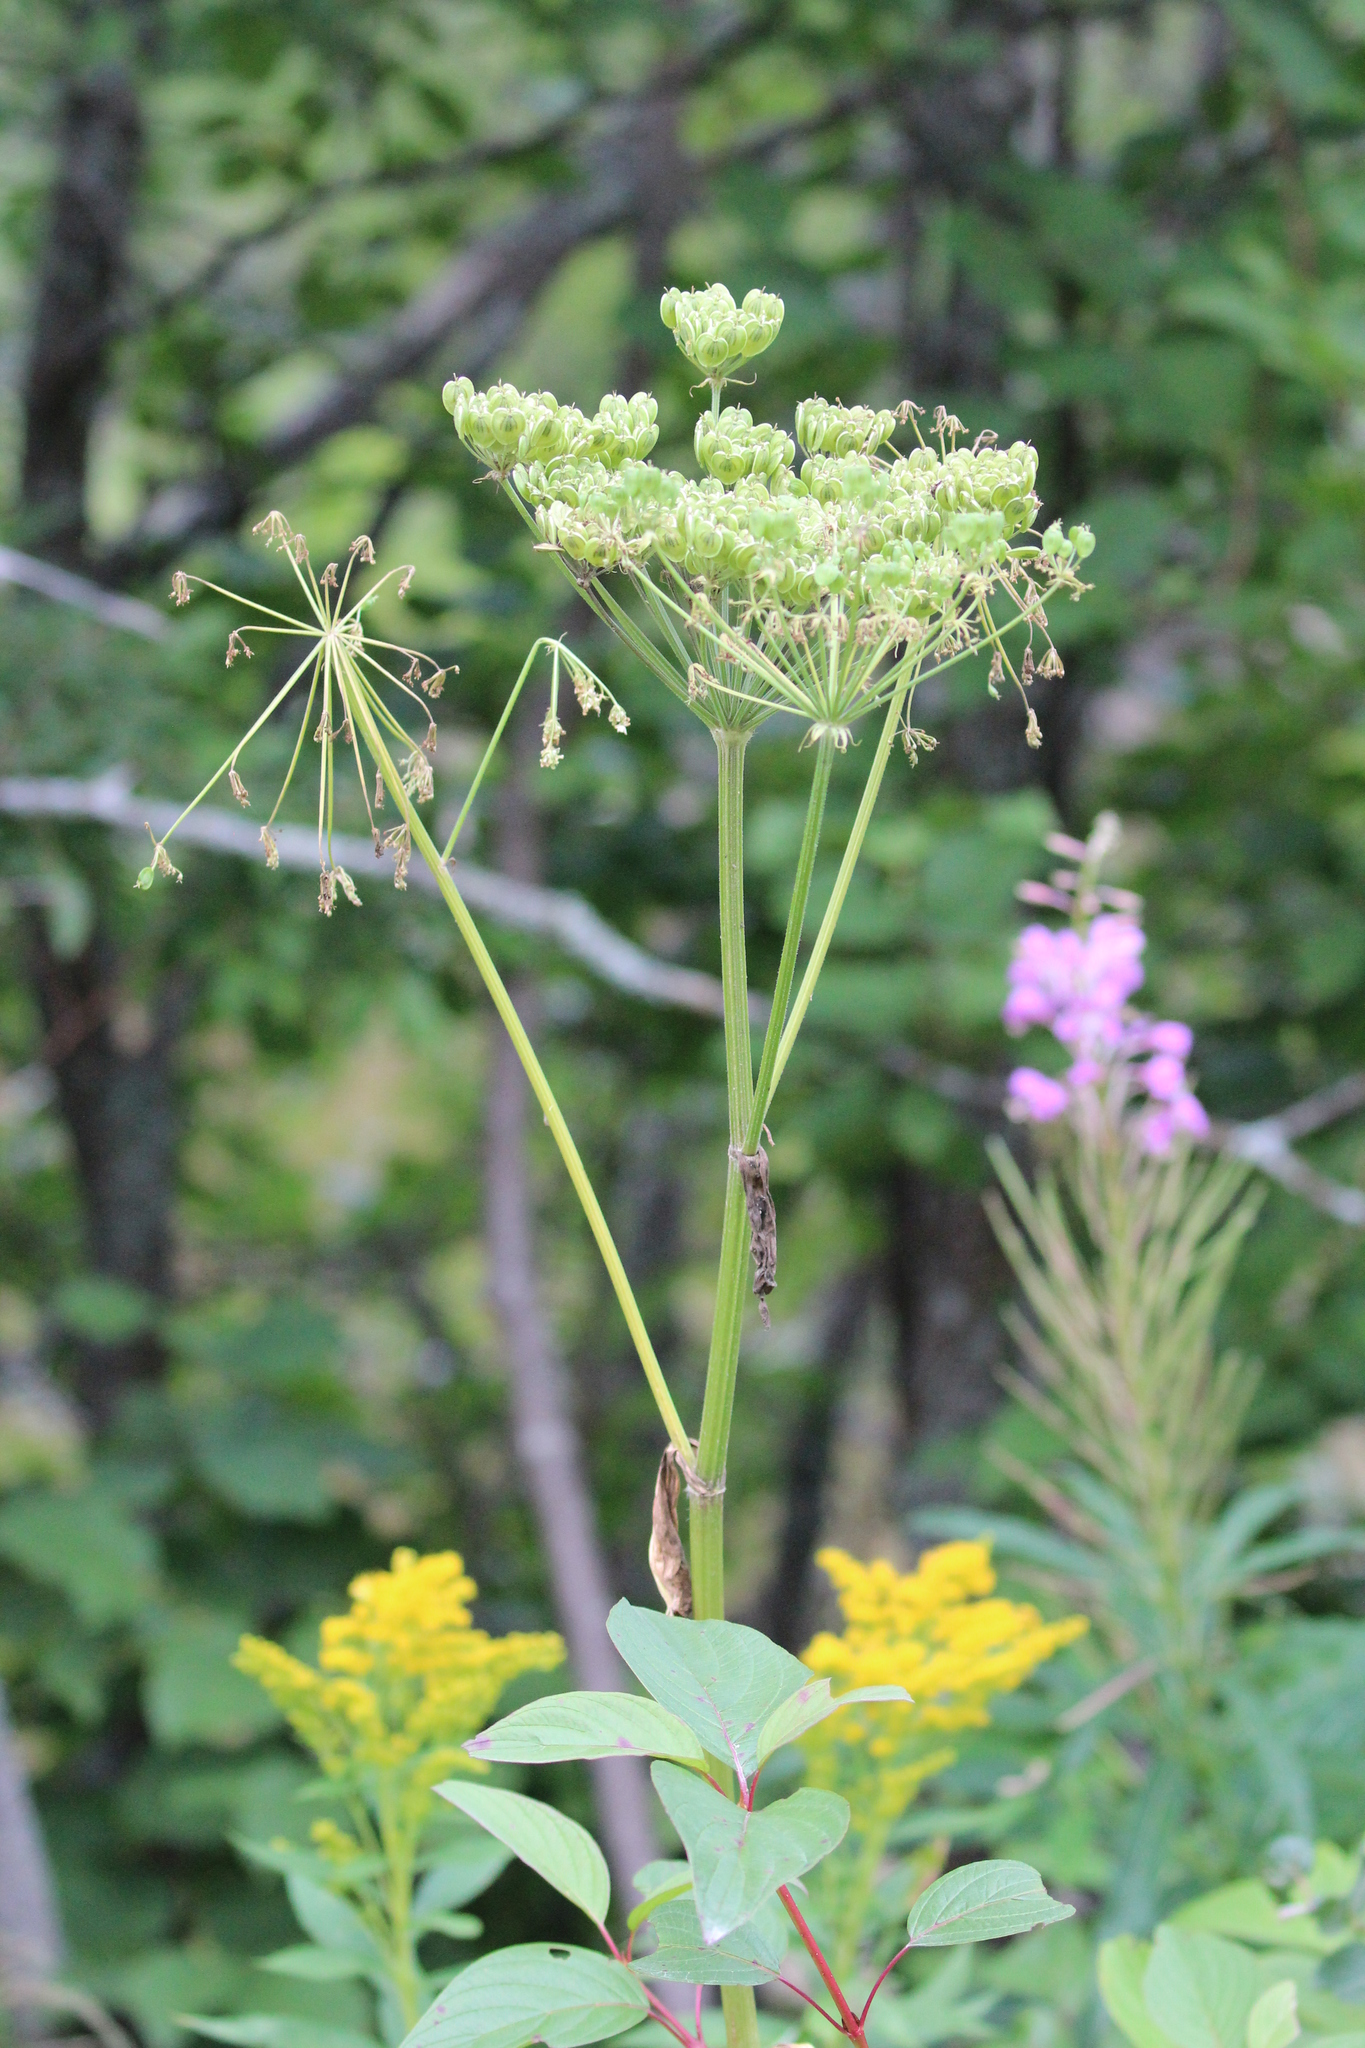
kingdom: Plantae
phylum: Tracheophyta
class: Magnoliopsida
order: Apiales
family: Apiaceae
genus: Heracleum
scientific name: Heracleum maximum
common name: American cow parsnip
